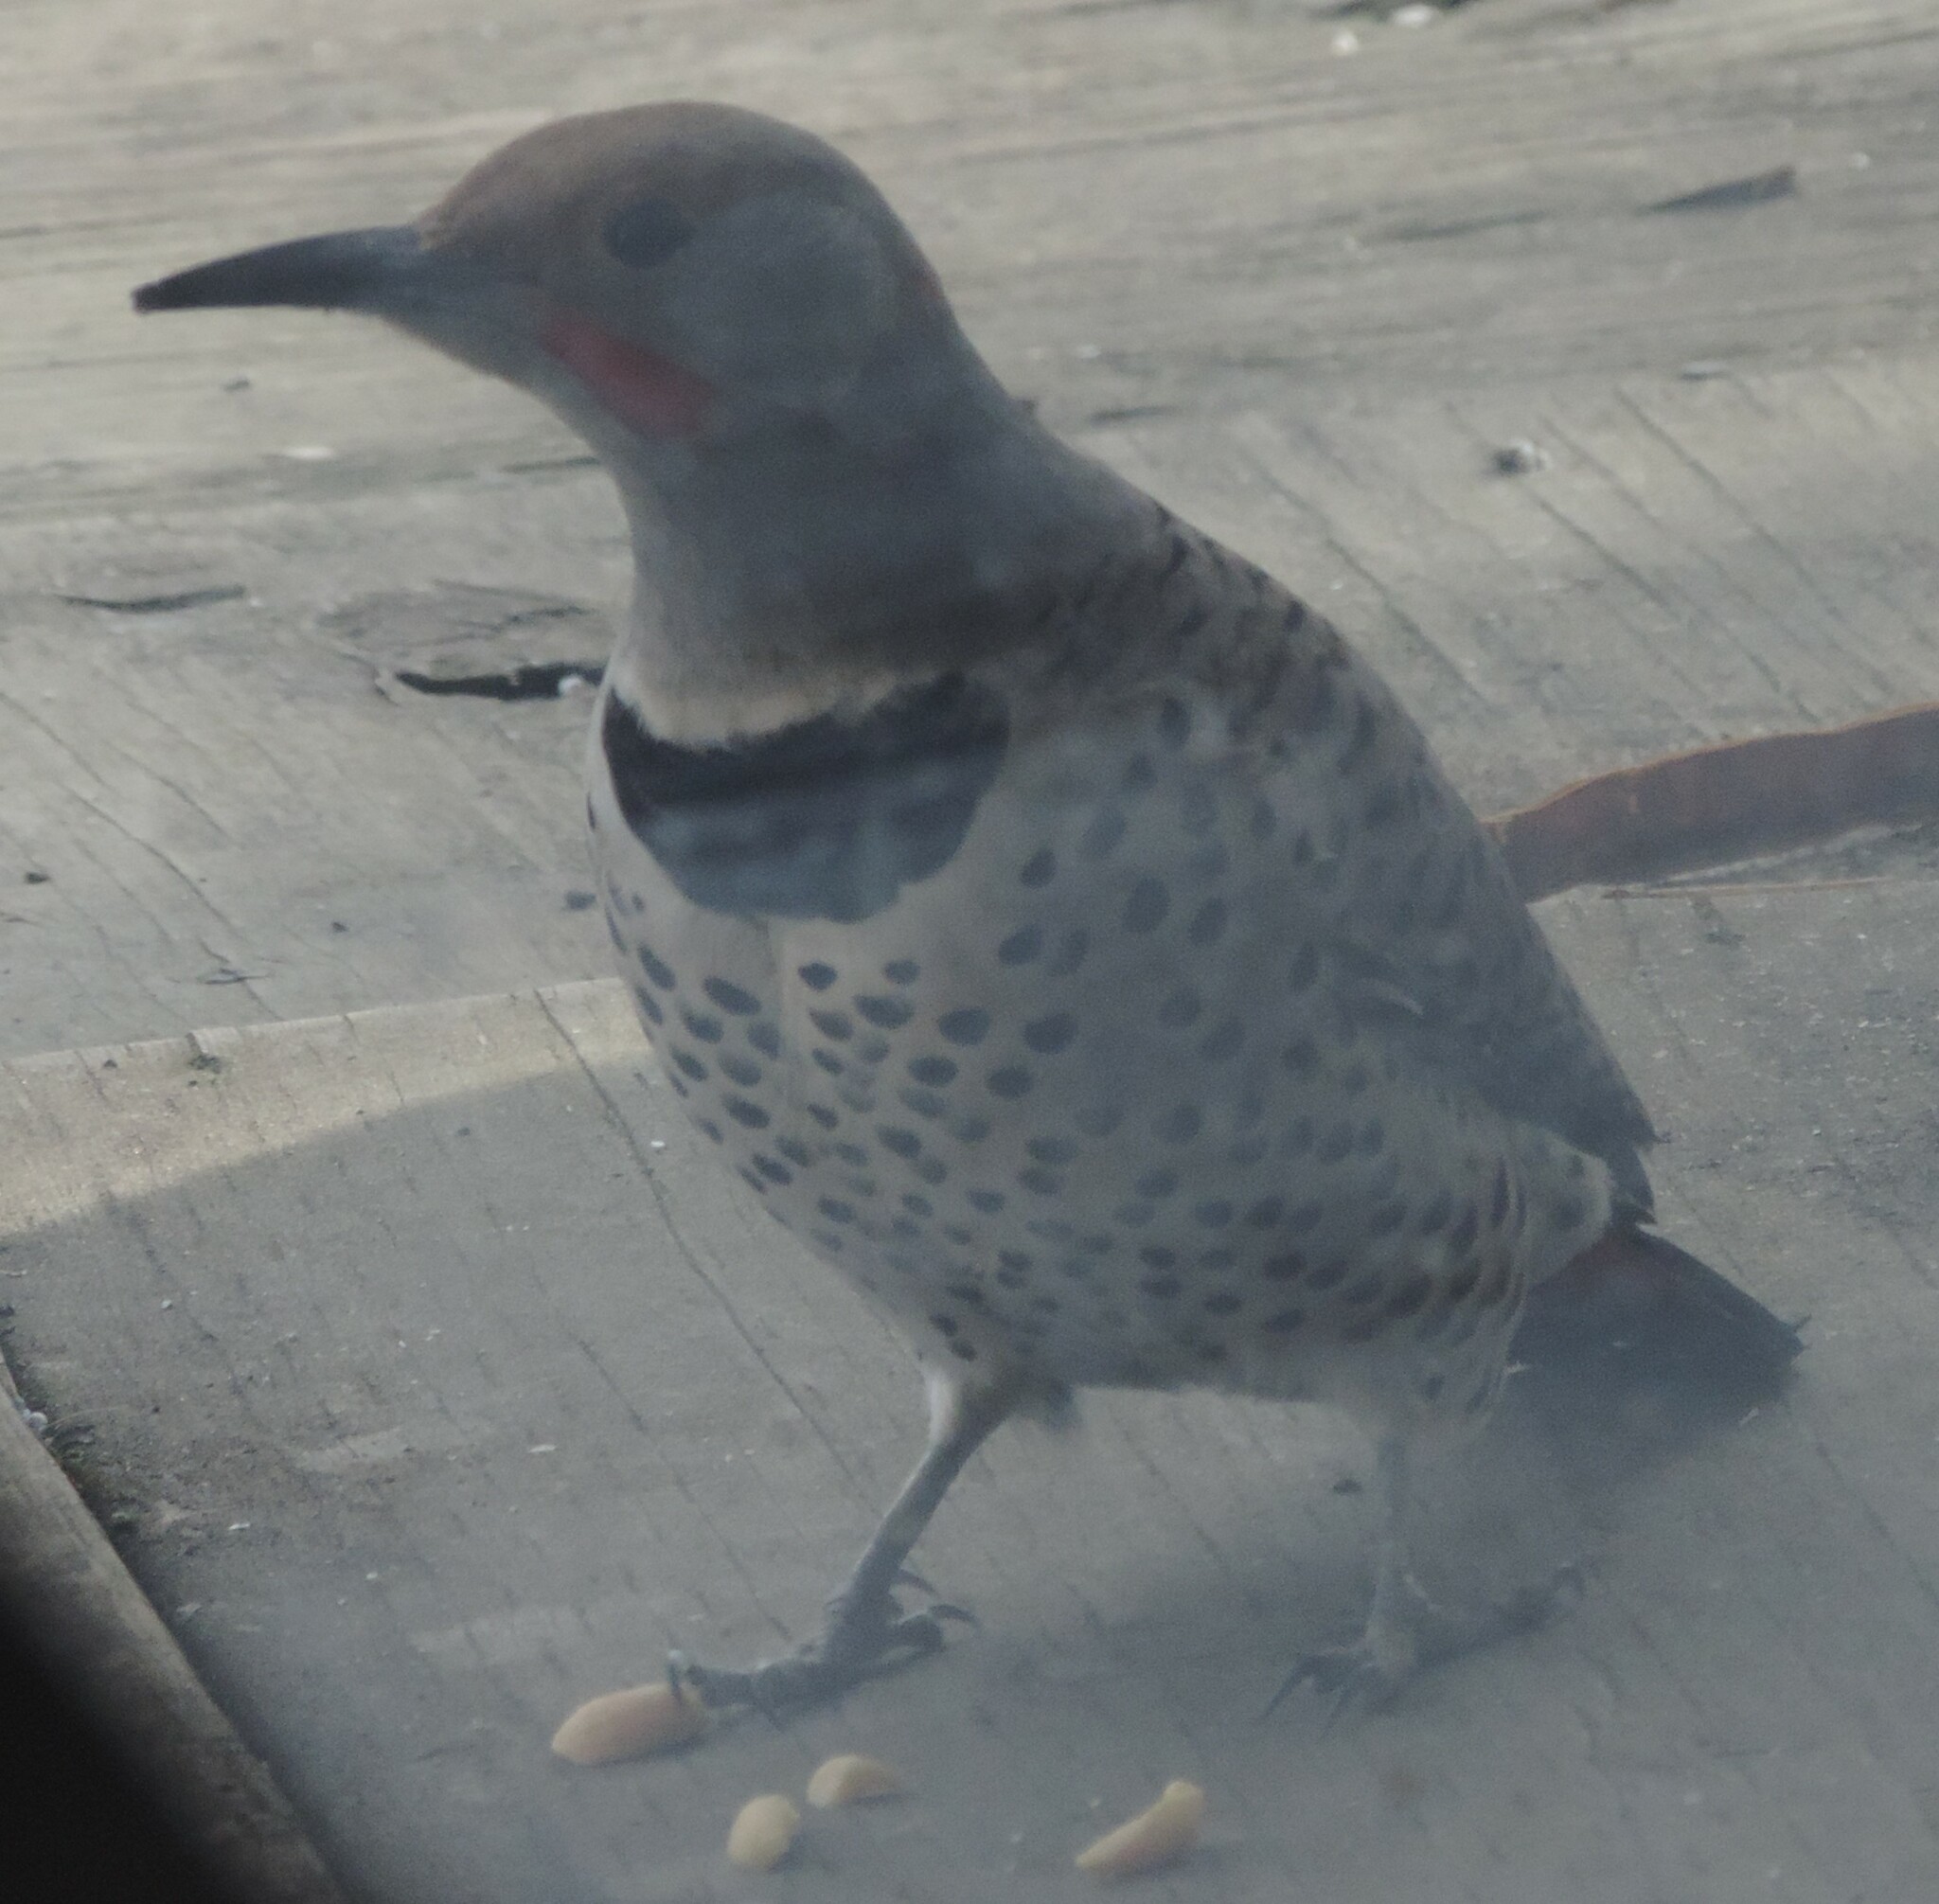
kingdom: Animalia
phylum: Chordata
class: Aves
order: Piciformes
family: Picidae
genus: Colaptes
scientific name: Colaptes
